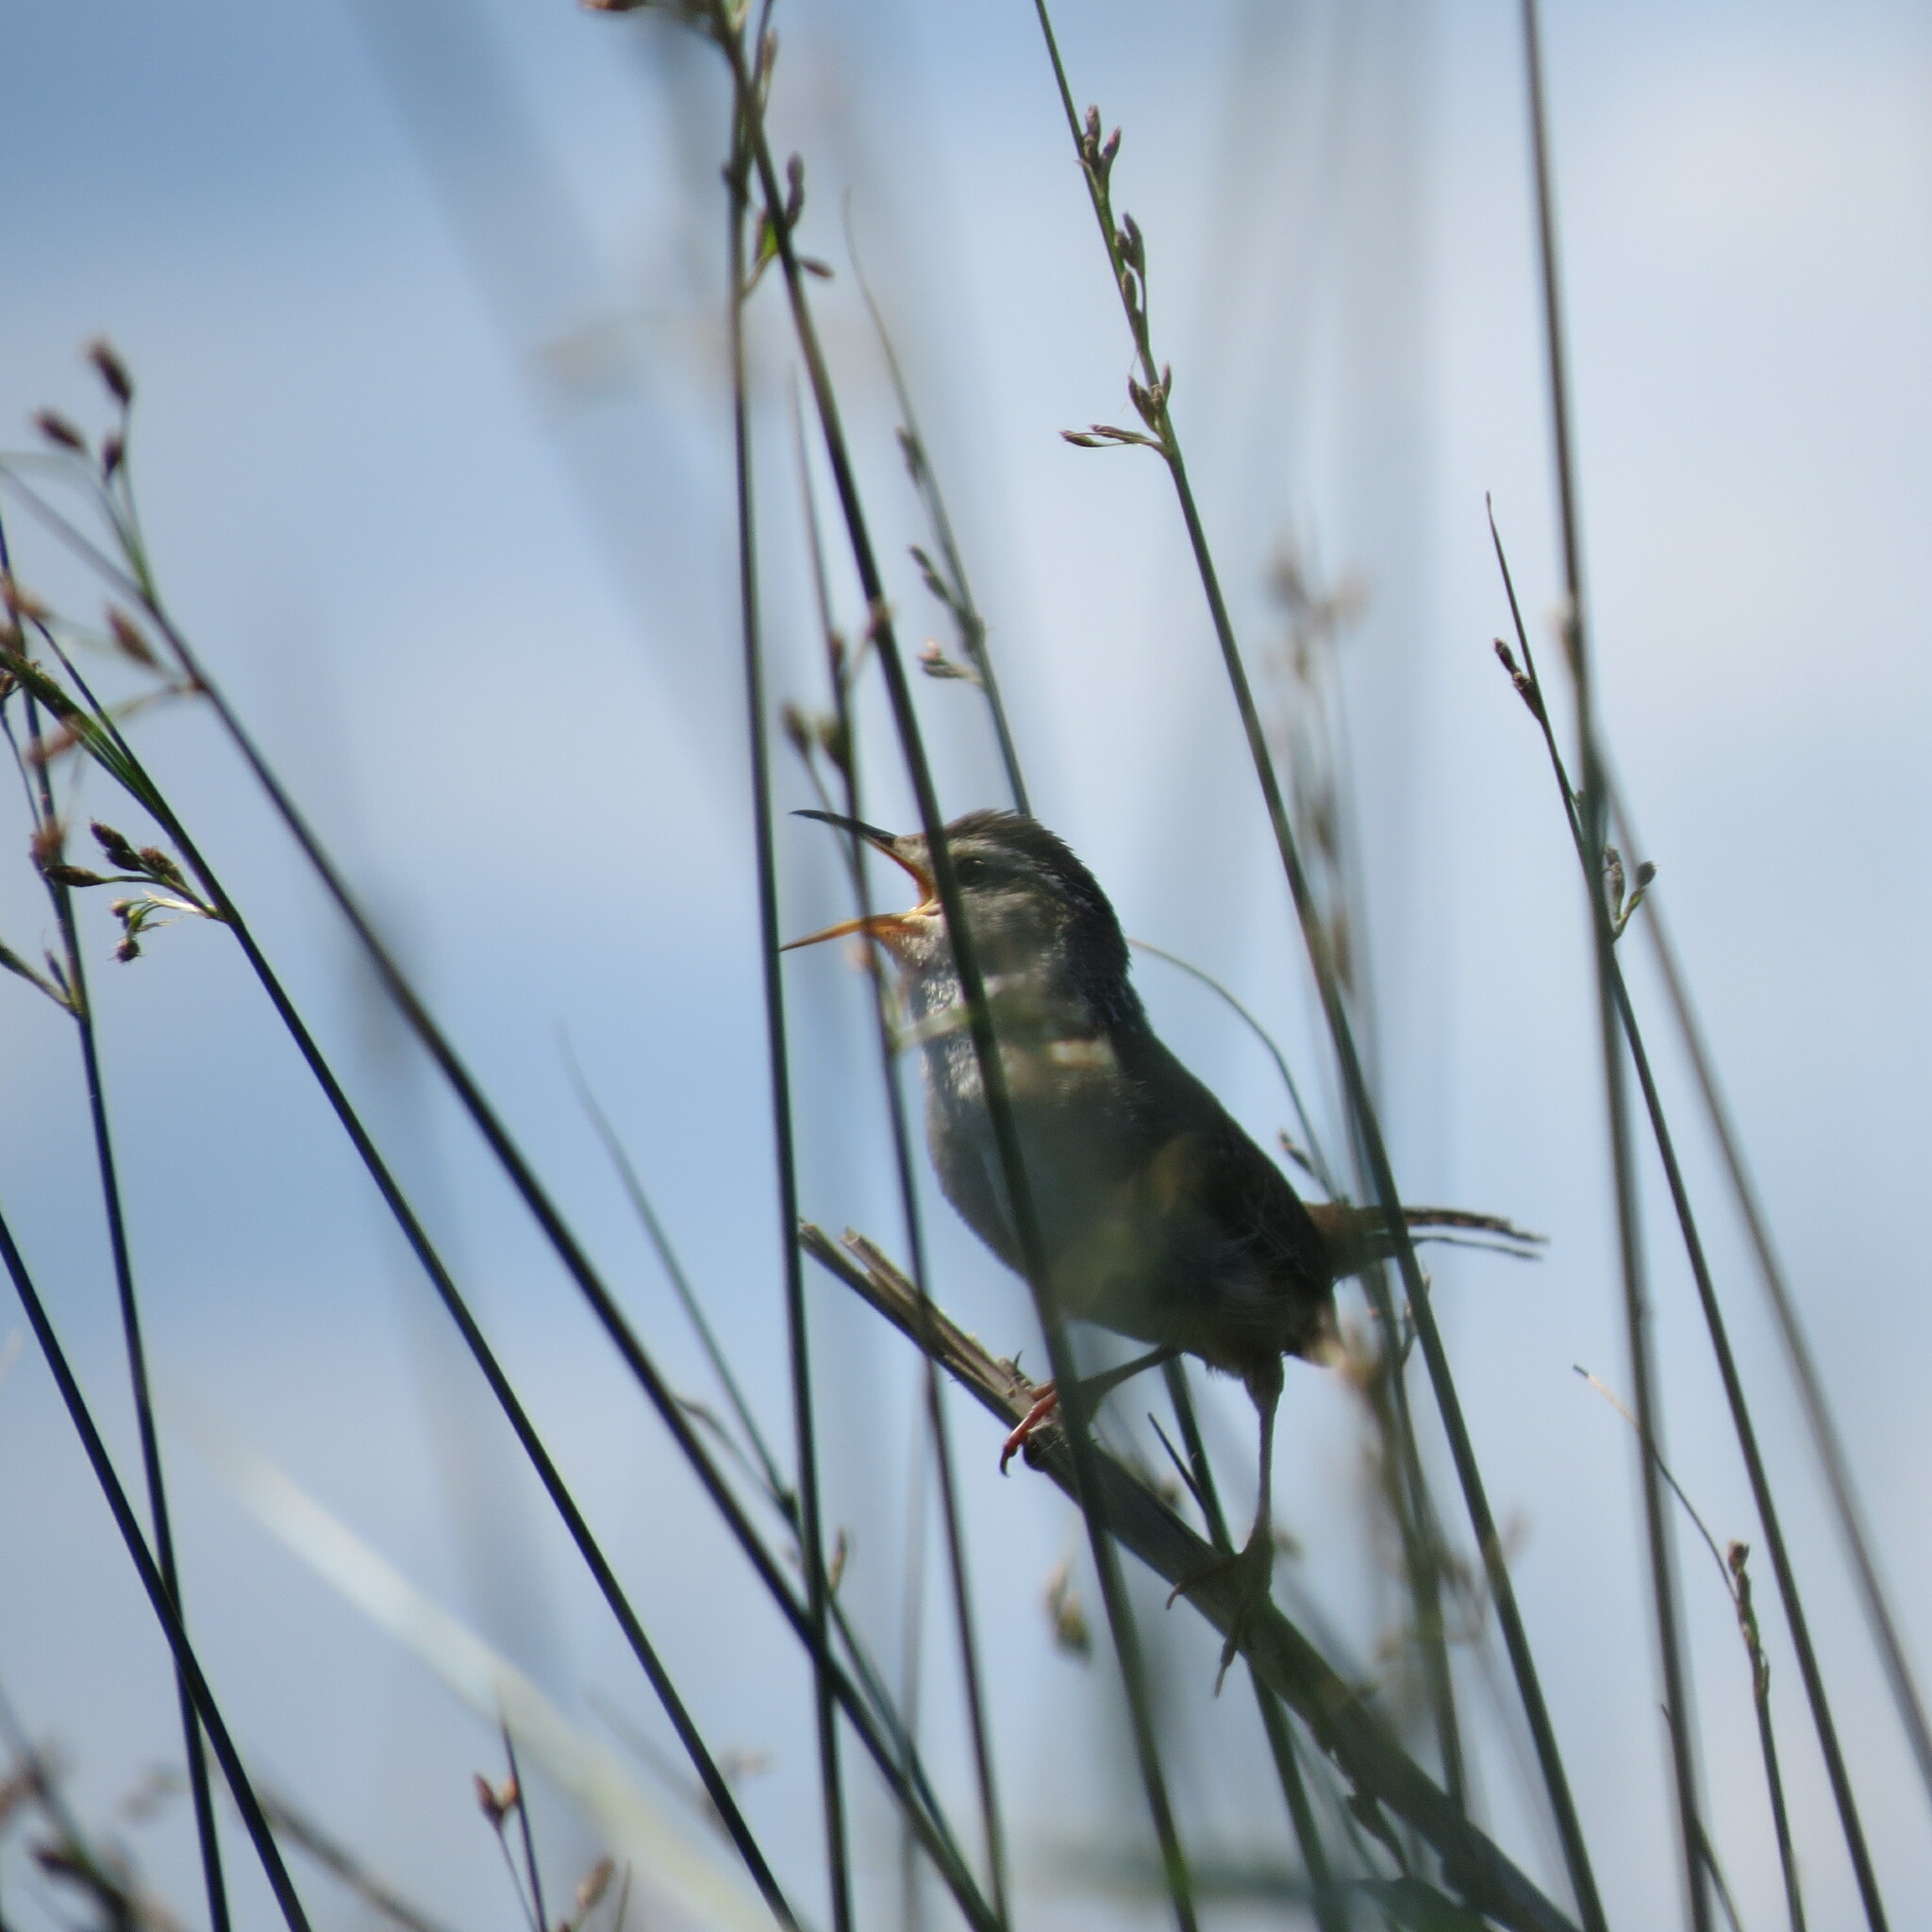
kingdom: Animalia
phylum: Chordata
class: Aves
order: Passeriformes
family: Troglodytidae
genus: Cistothorus
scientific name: Cistothorus palustris
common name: Marsh wren
